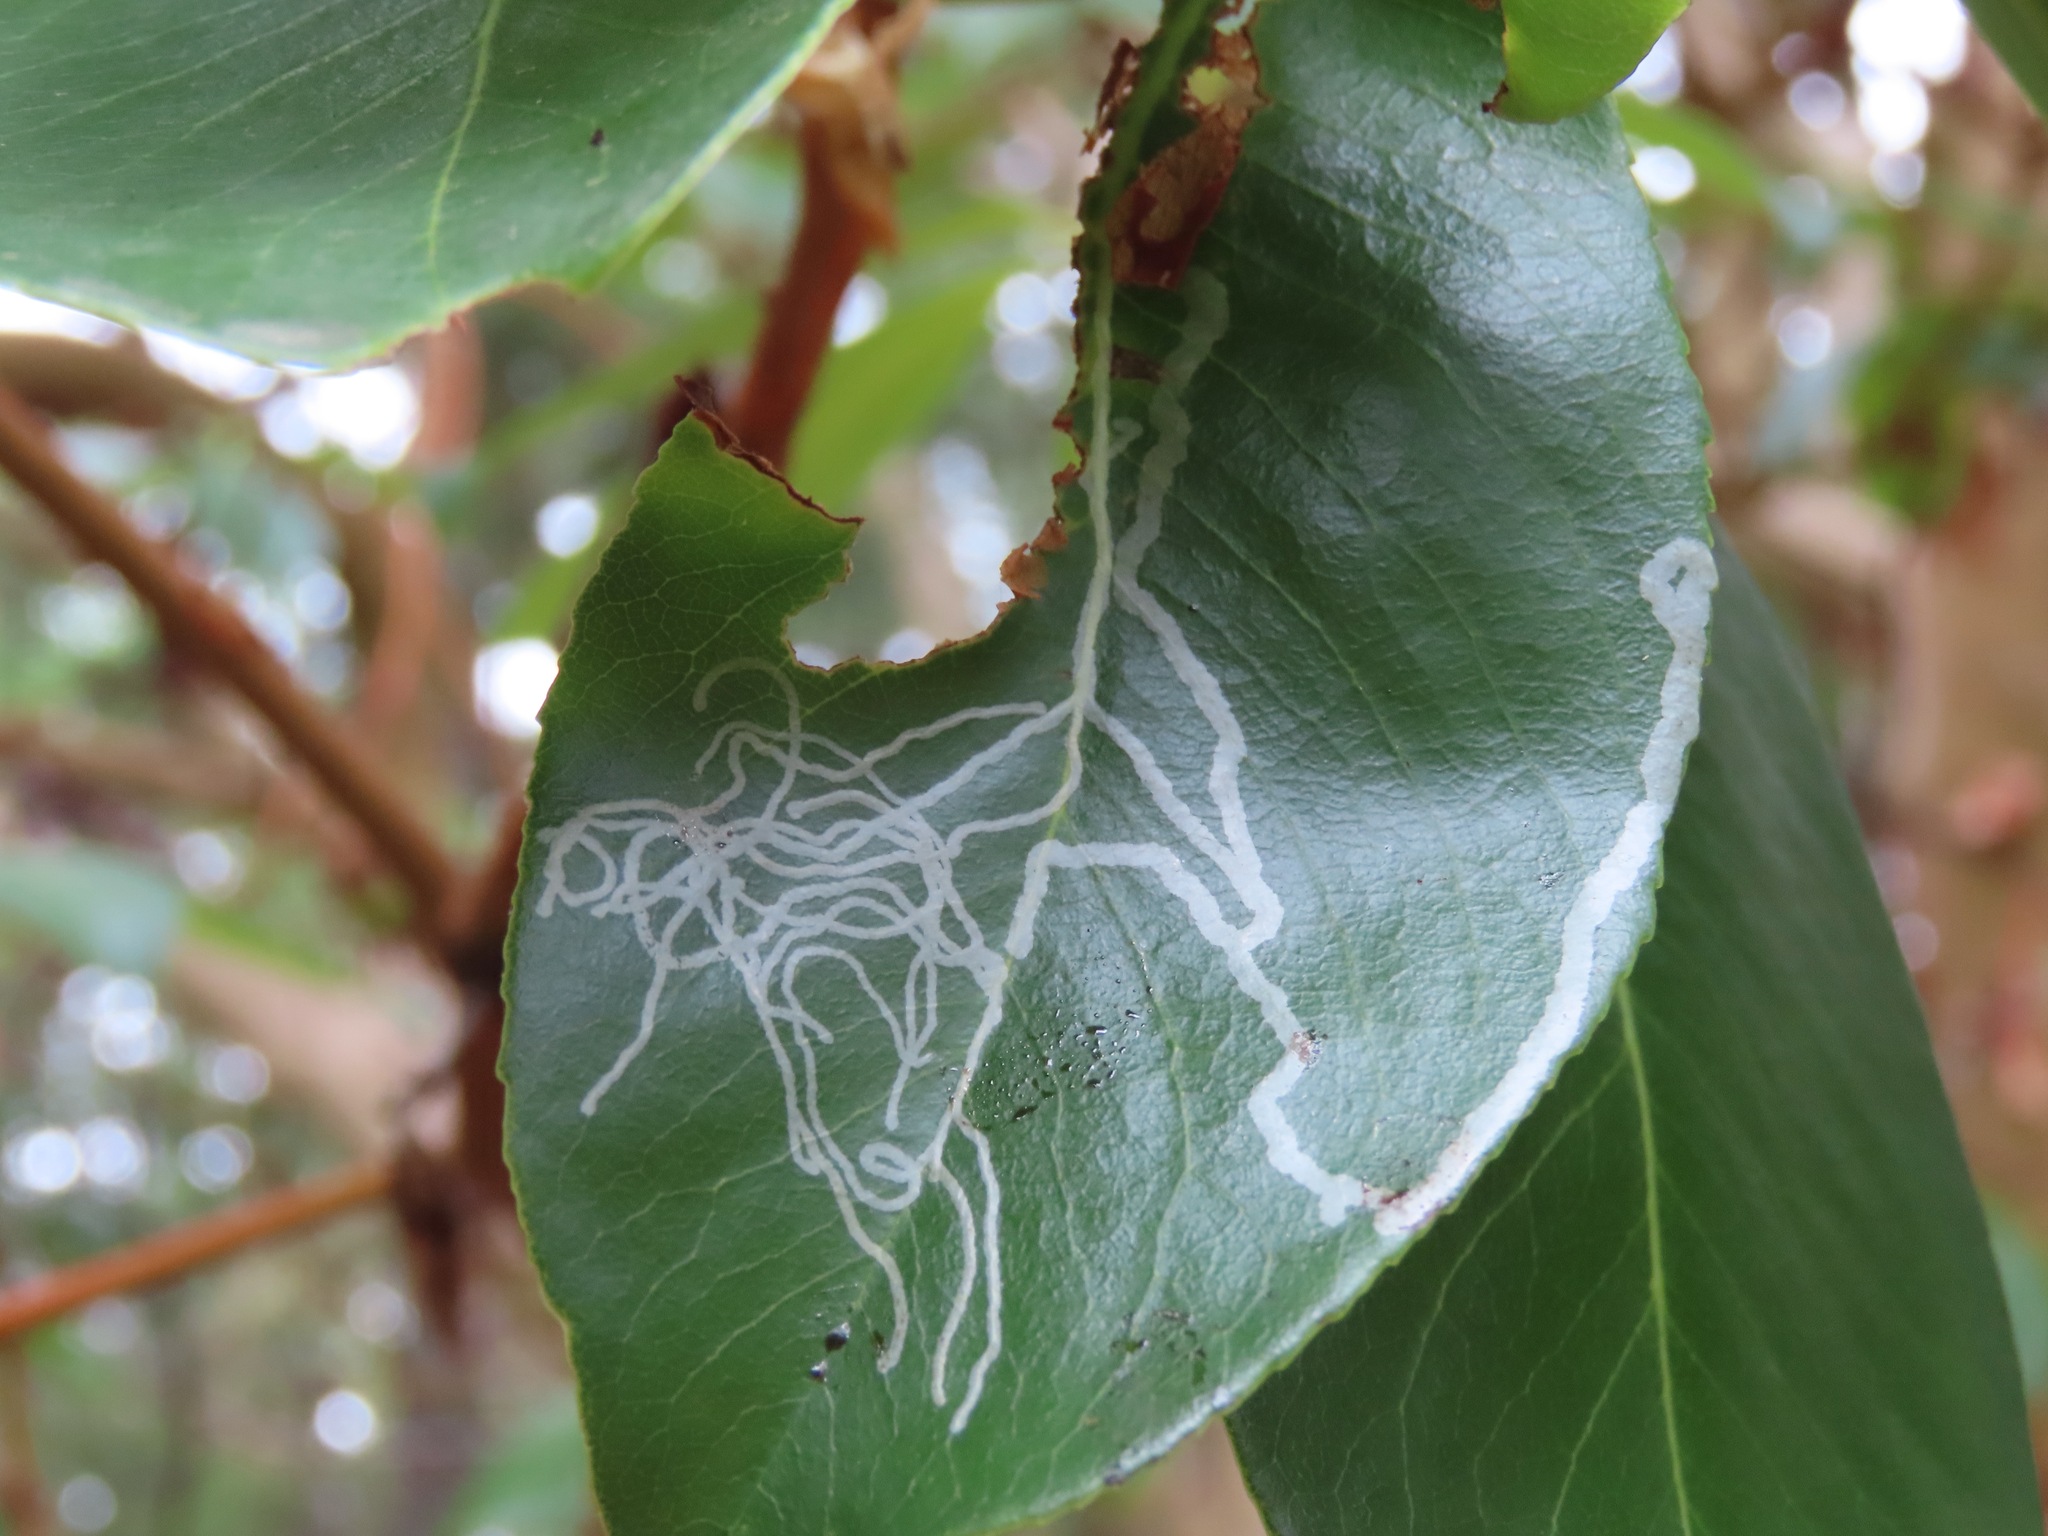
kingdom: Animalia
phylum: Arthropoda
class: Insecta
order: Lepidoptera
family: Gracillariidae
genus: Marmara
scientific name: Marmara arbutiella
